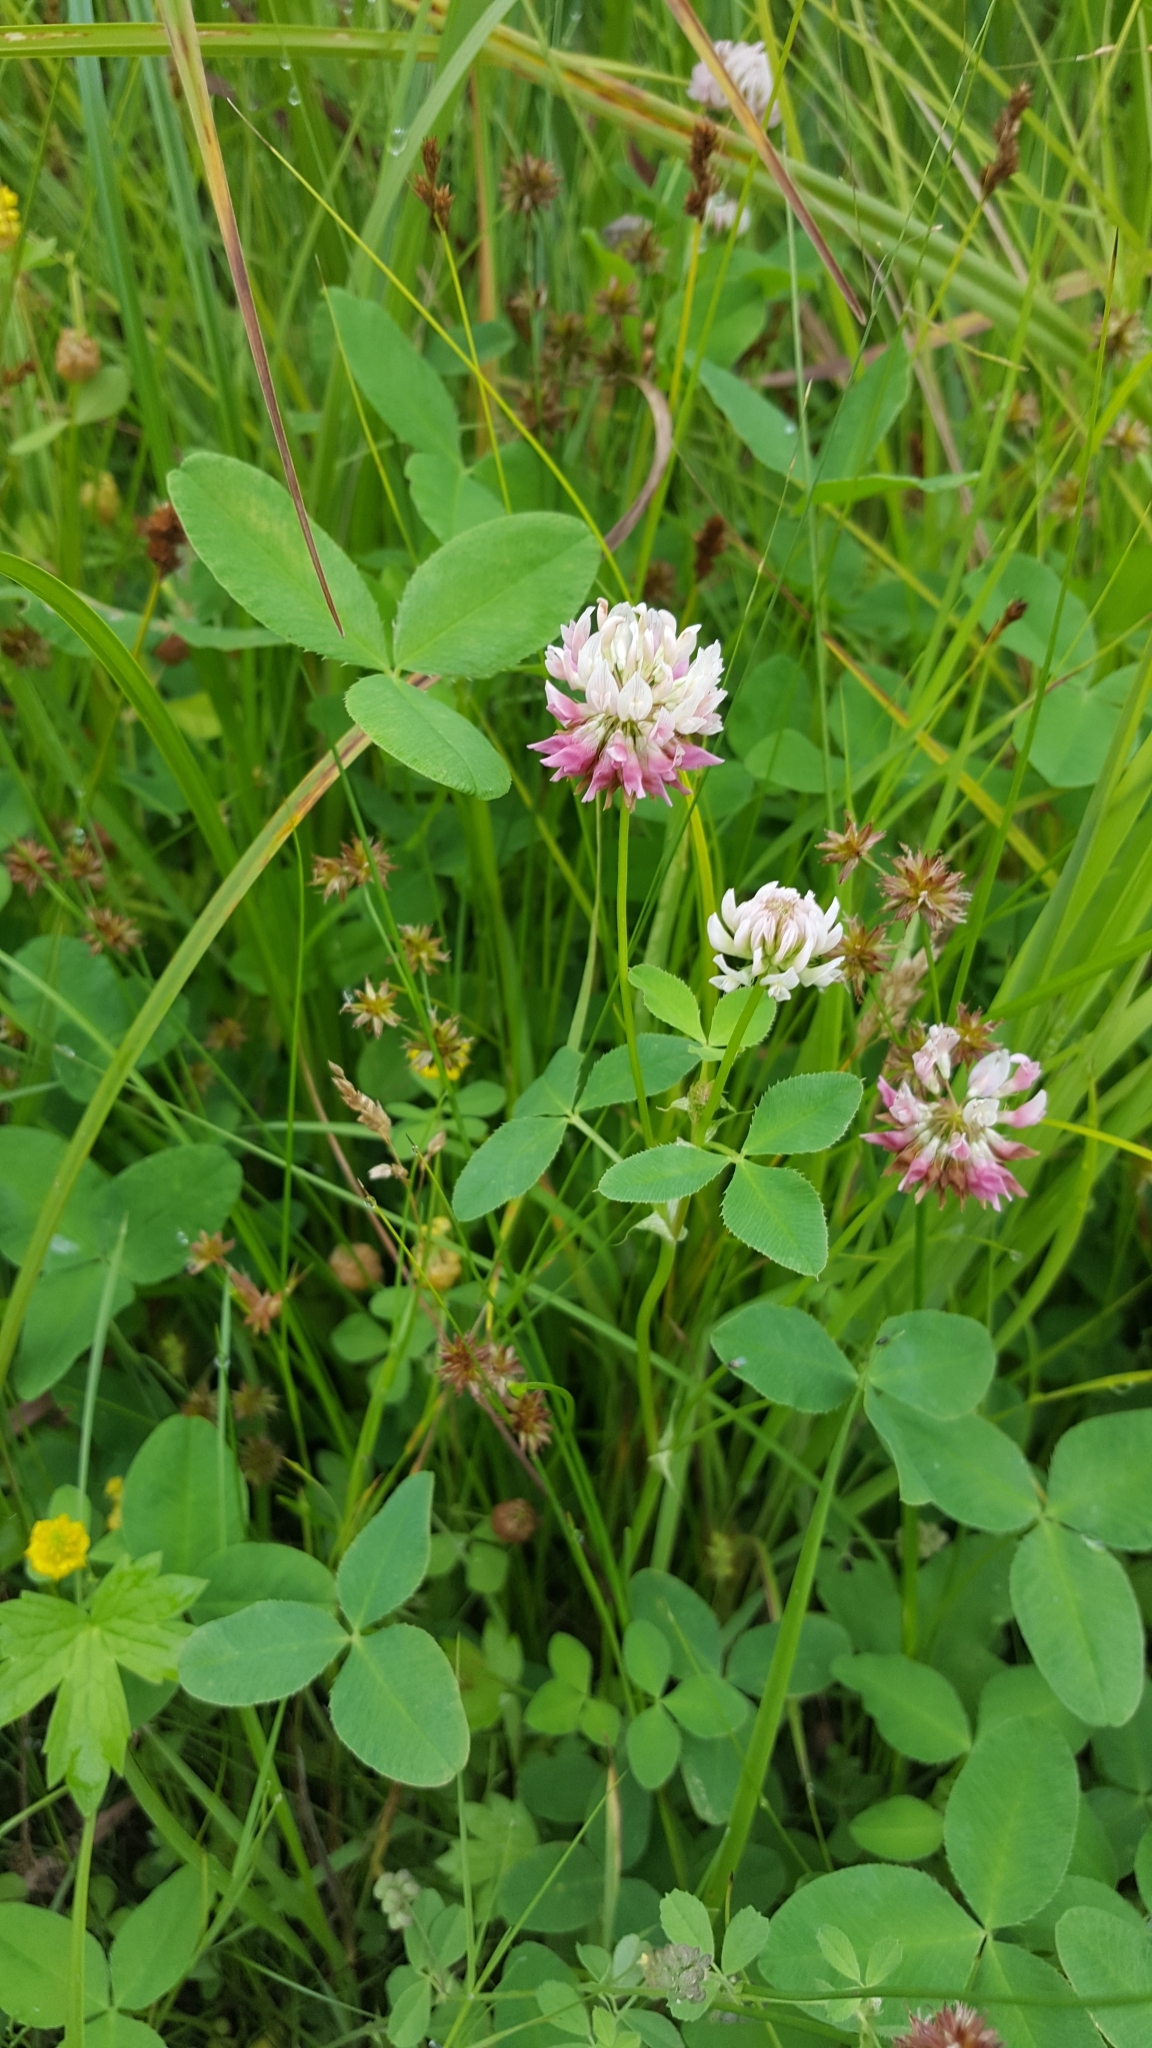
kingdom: Plantae
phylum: Tracheophyta
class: Magnoliopsida
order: Fabales
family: Fabaceae
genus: Trifolium
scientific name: Trifolium hybridum
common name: Alsike clover
